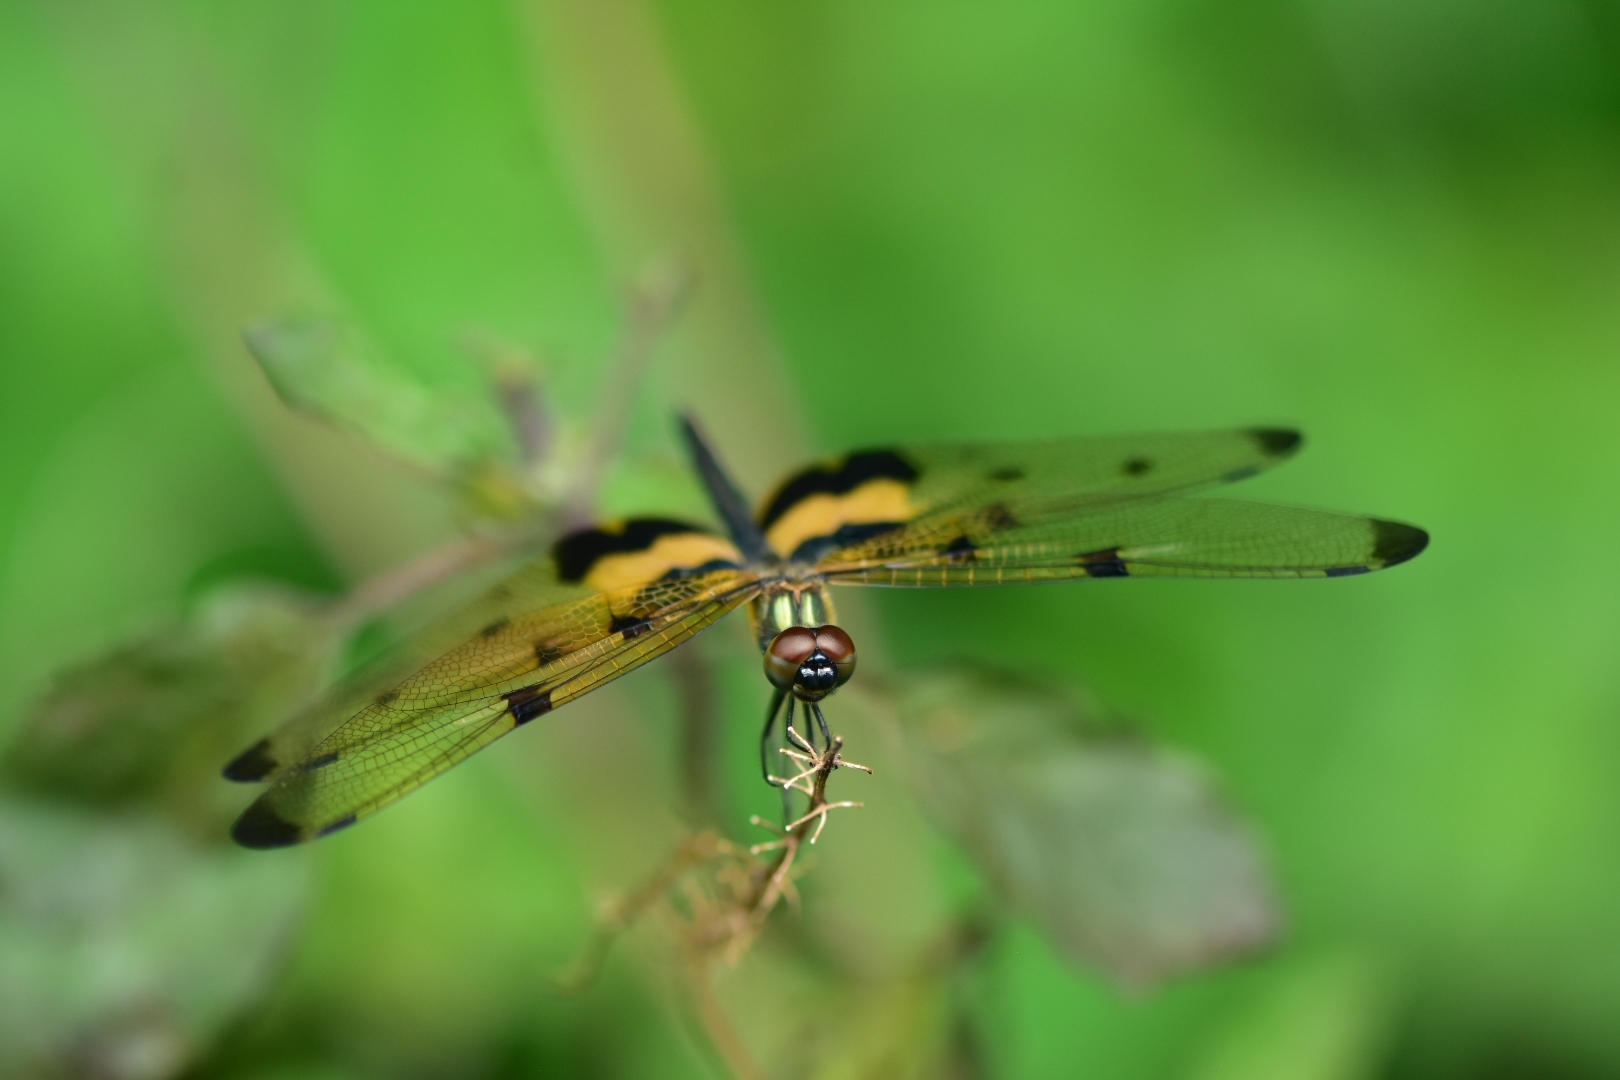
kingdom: Animalia
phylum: Arthropoda
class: Insecta
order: Odonata
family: Libellulidae
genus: Rhyothemis
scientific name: Rhyothemis variegata
